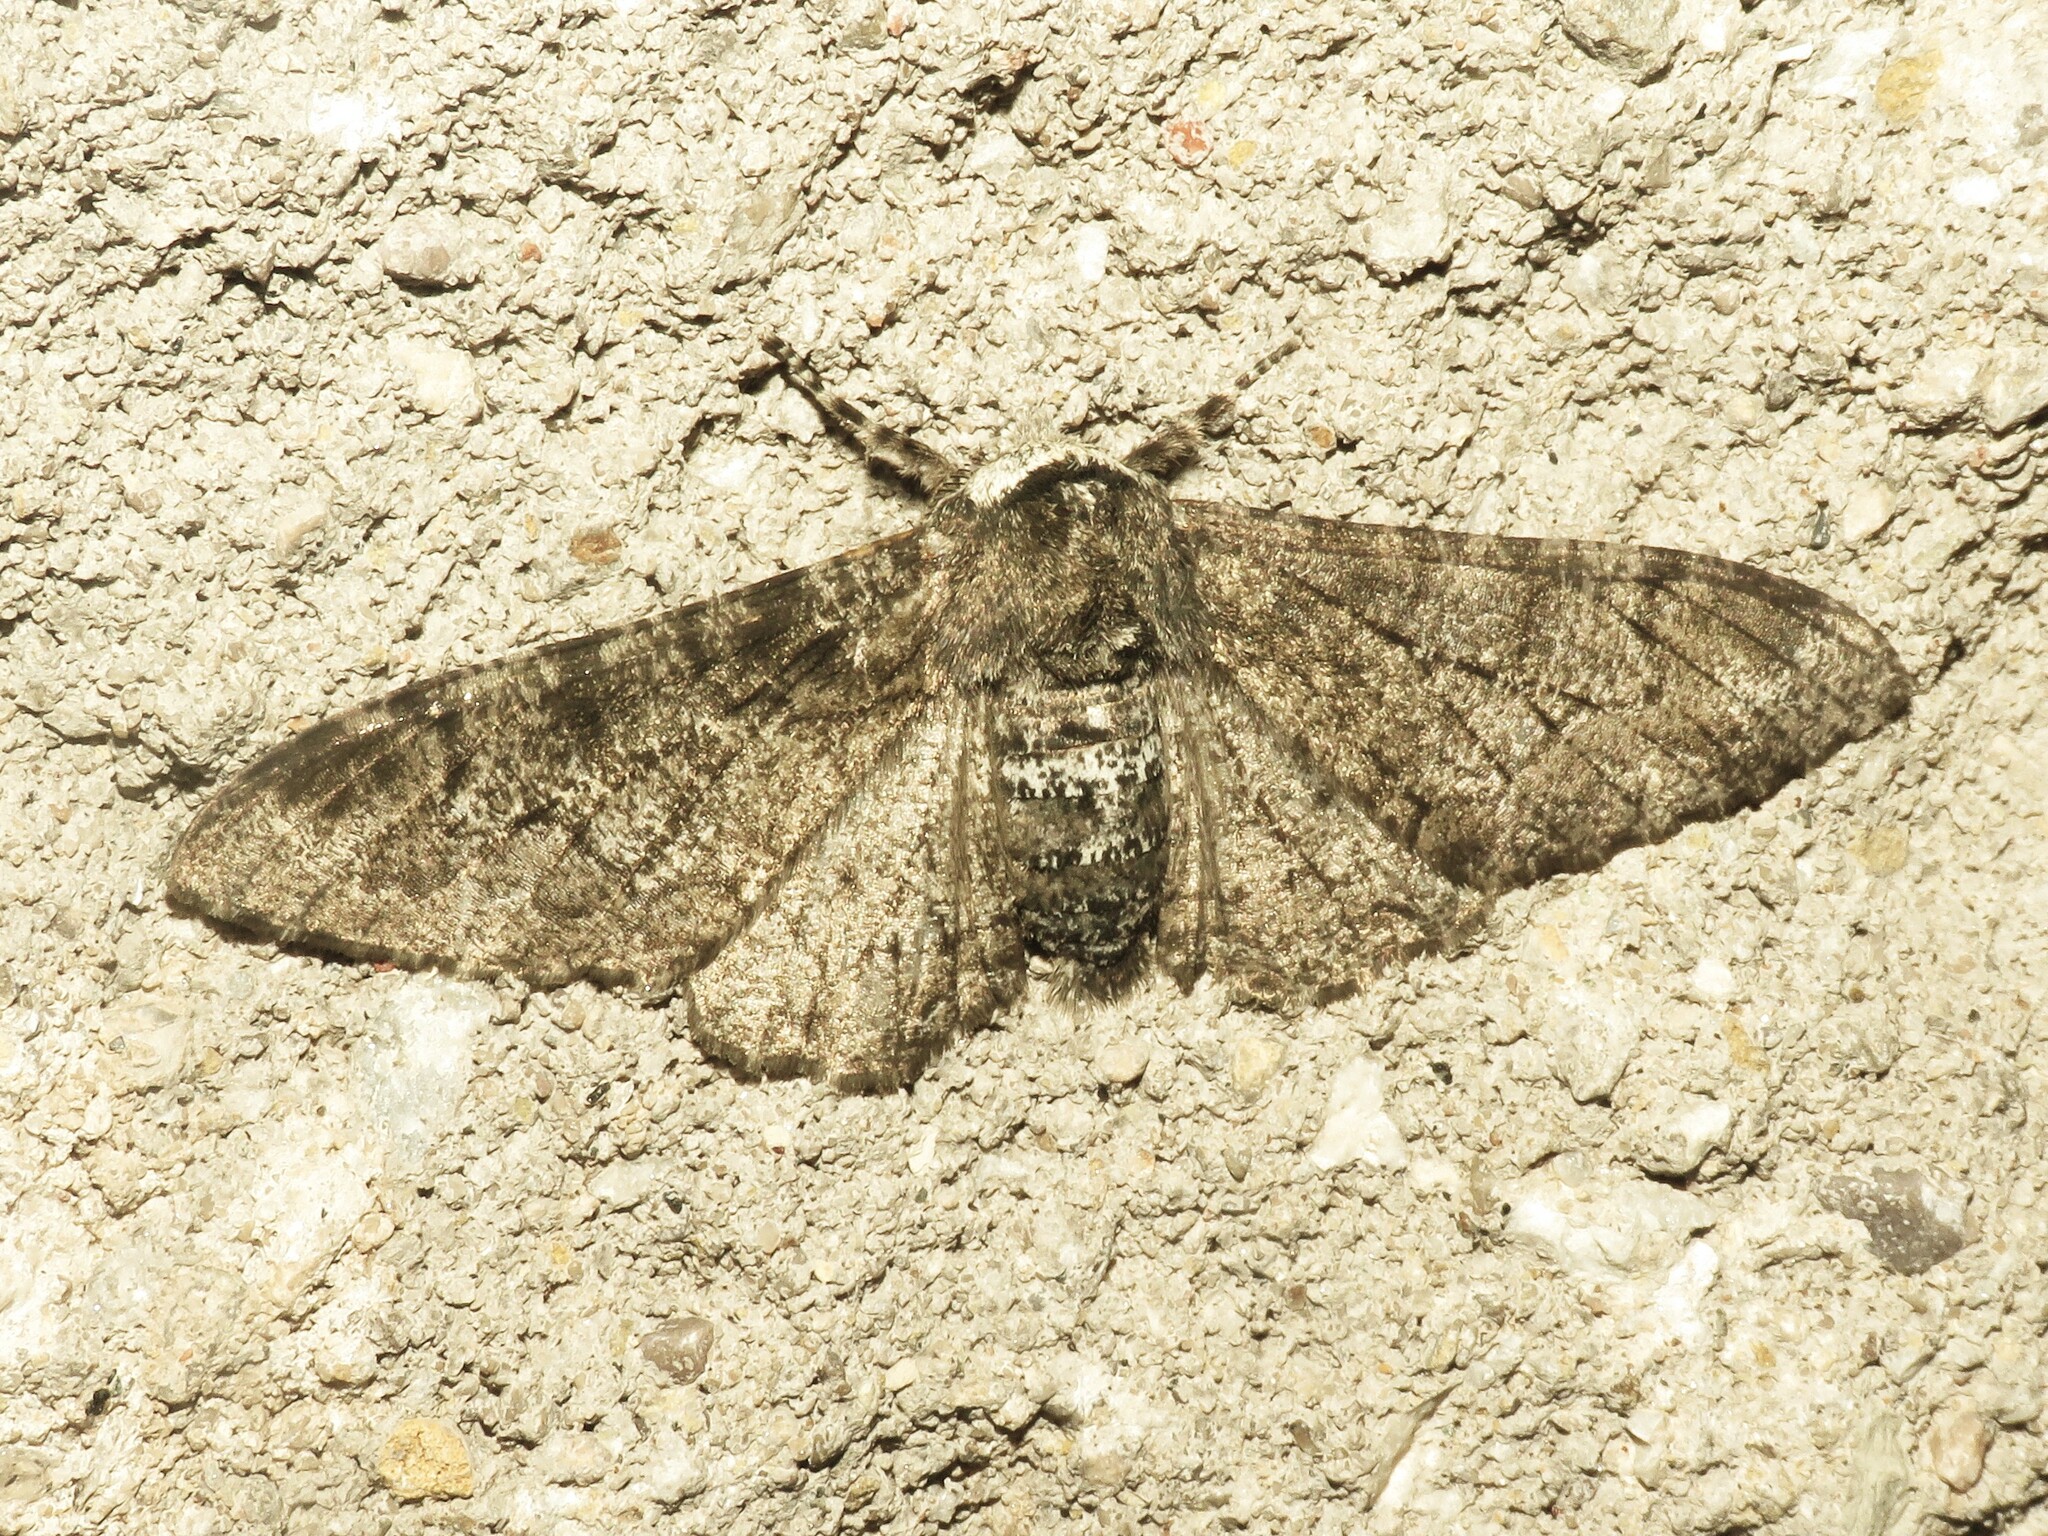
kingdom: Animalia
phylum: Arthropoda
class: Insecta
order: Lepidoptera
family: Geometridae
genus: Biston
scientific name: Biston betularia
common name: Peppered moth
